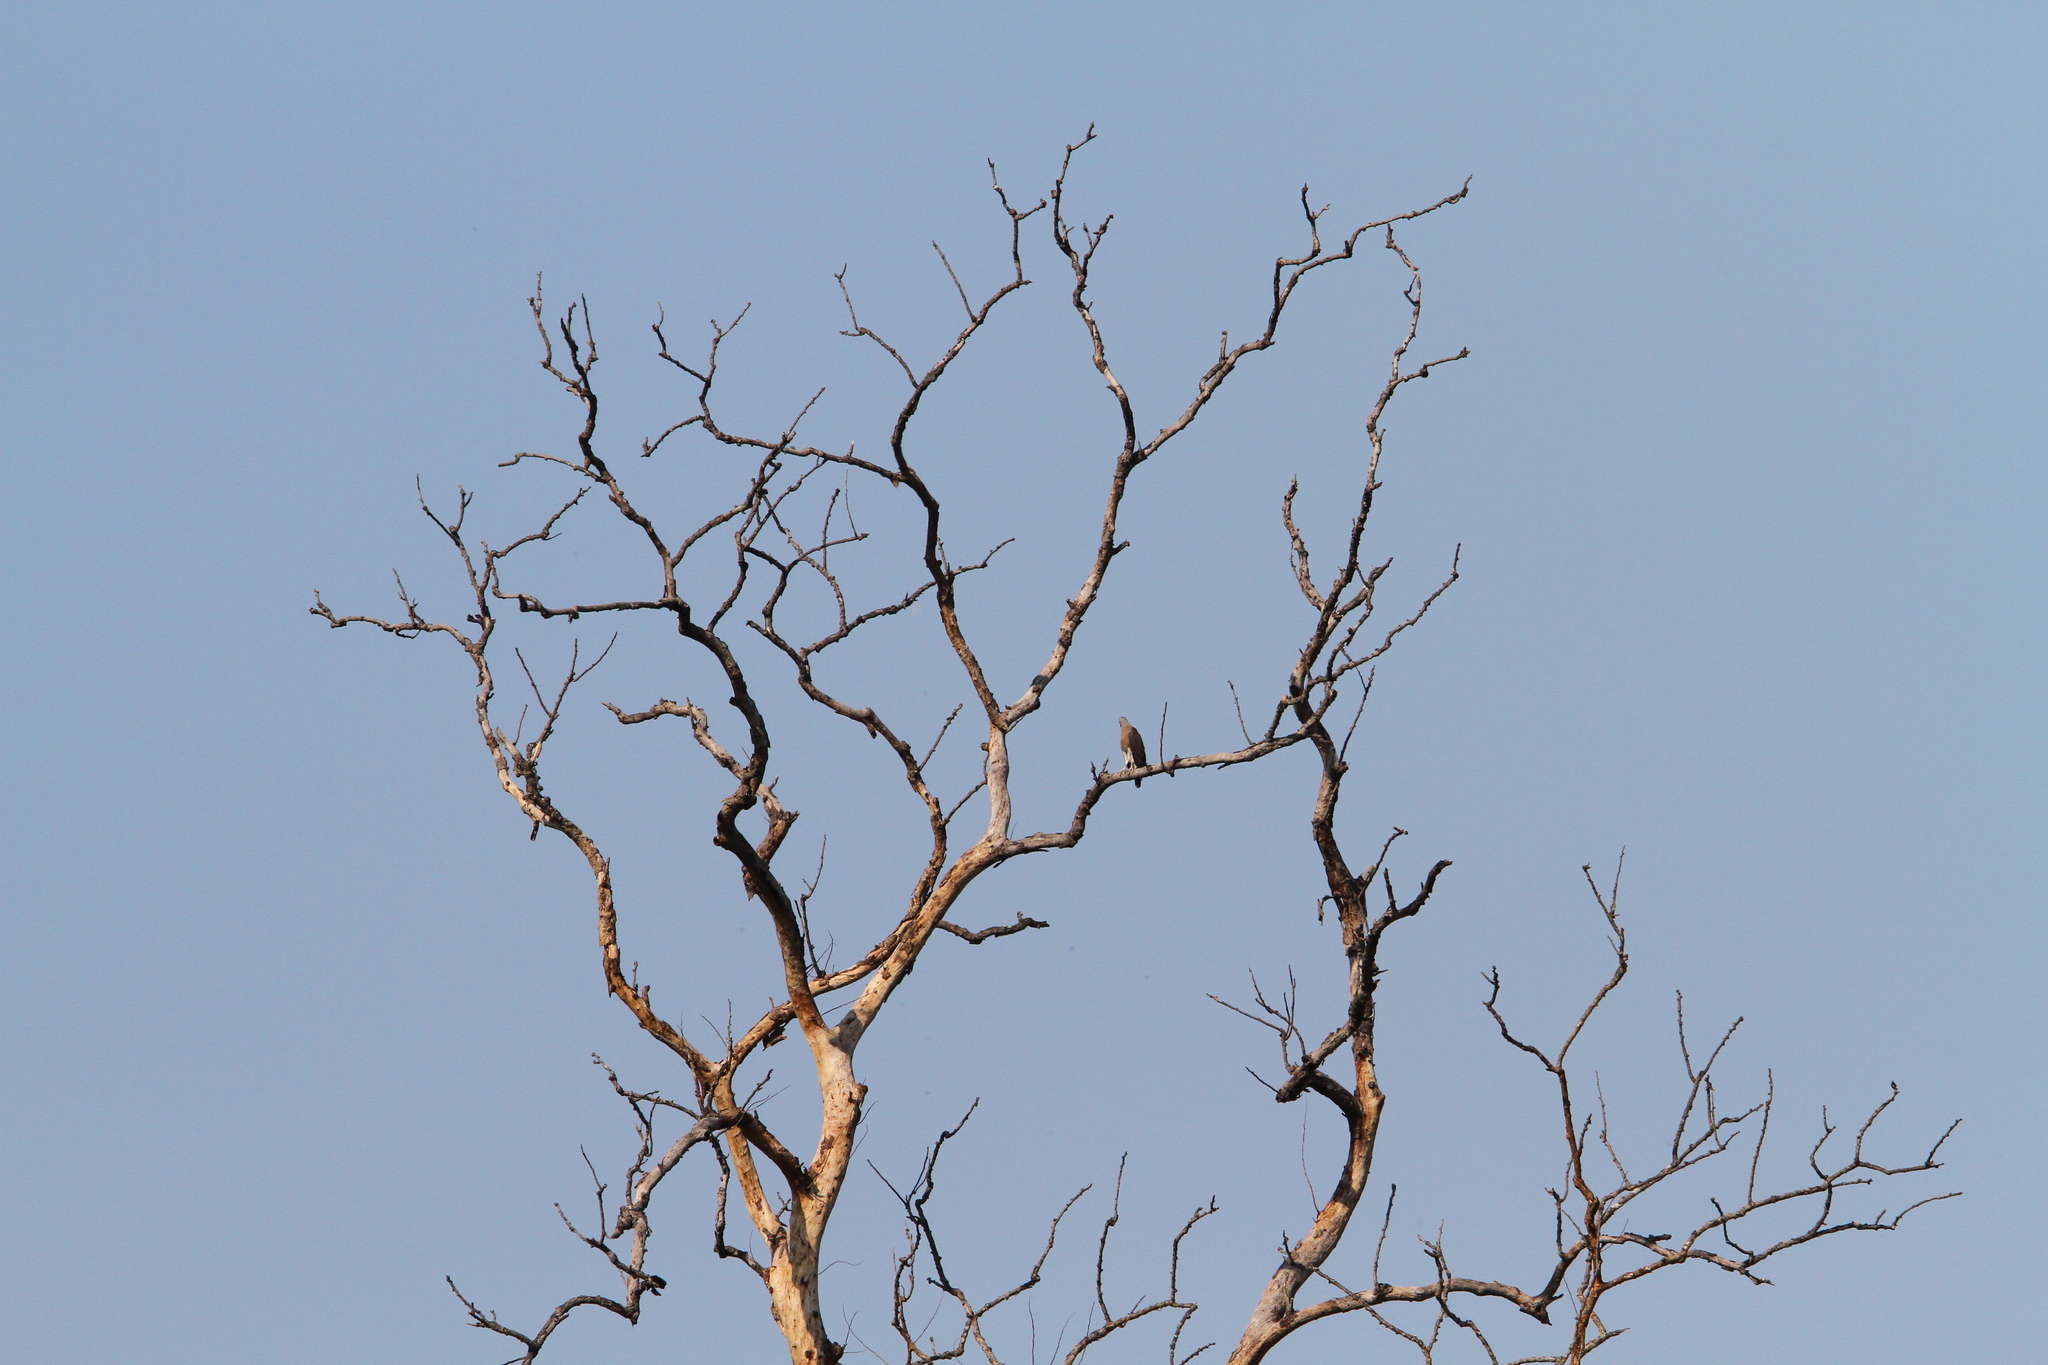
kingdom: Animalia
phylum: Chordata
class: Aves
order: Accipitriformes
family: Accipitridae
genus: Icthyophaga
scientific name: Icthyophaga ichthyaetus
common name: Grey-headed fish eagle
